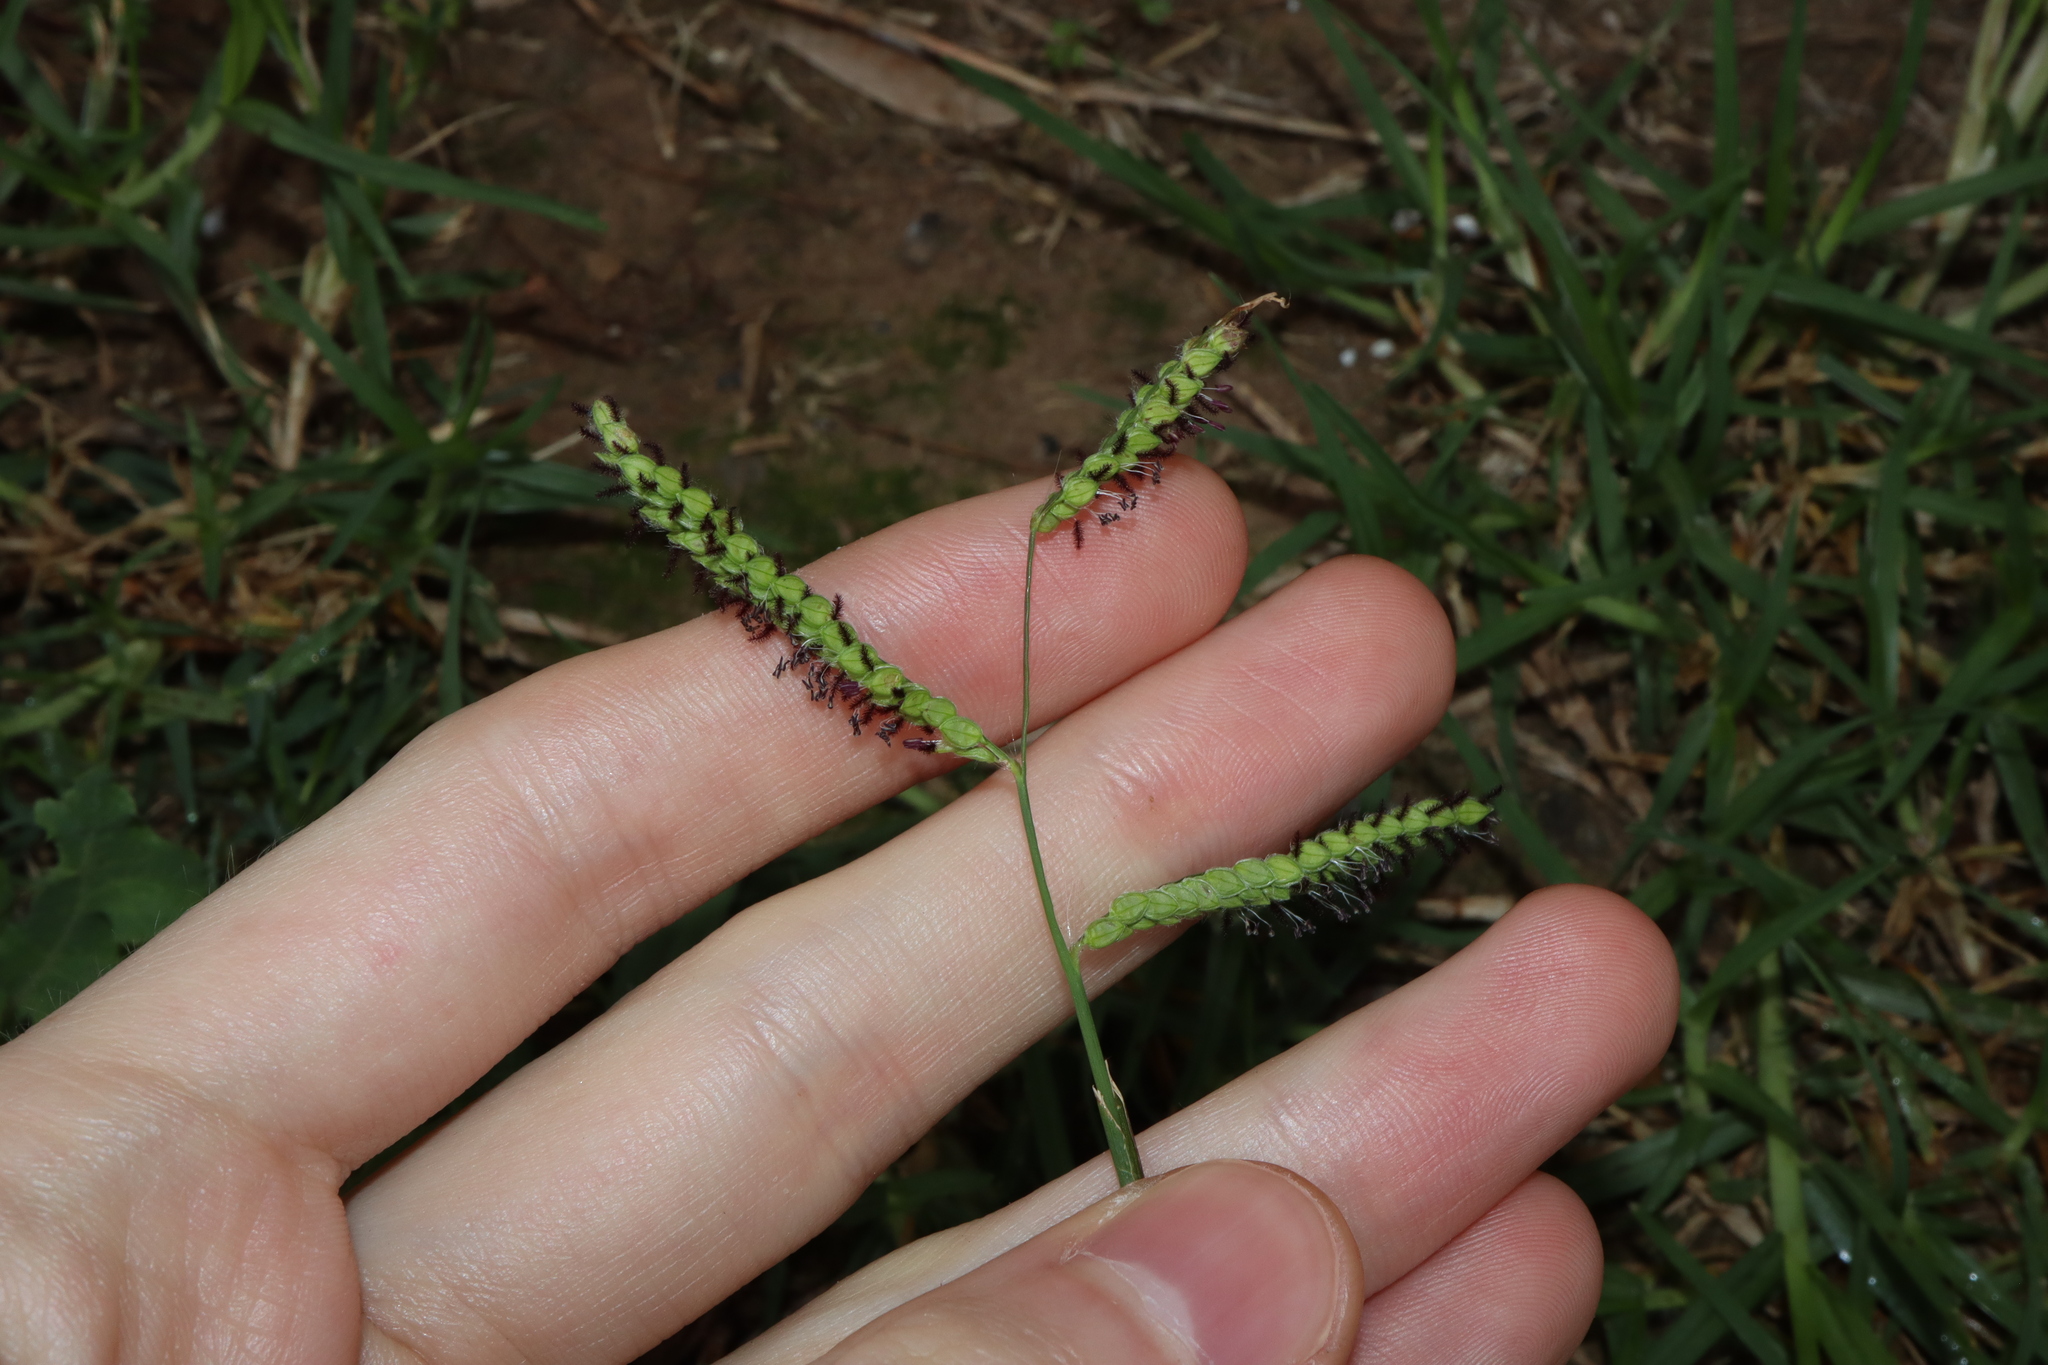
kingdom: Plantae
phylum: Tracheophyta
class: Liliopsida
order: Poales
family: Poaceae
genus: Paspalum
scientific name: Paspalum dilatatum
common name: Dallisgrass
